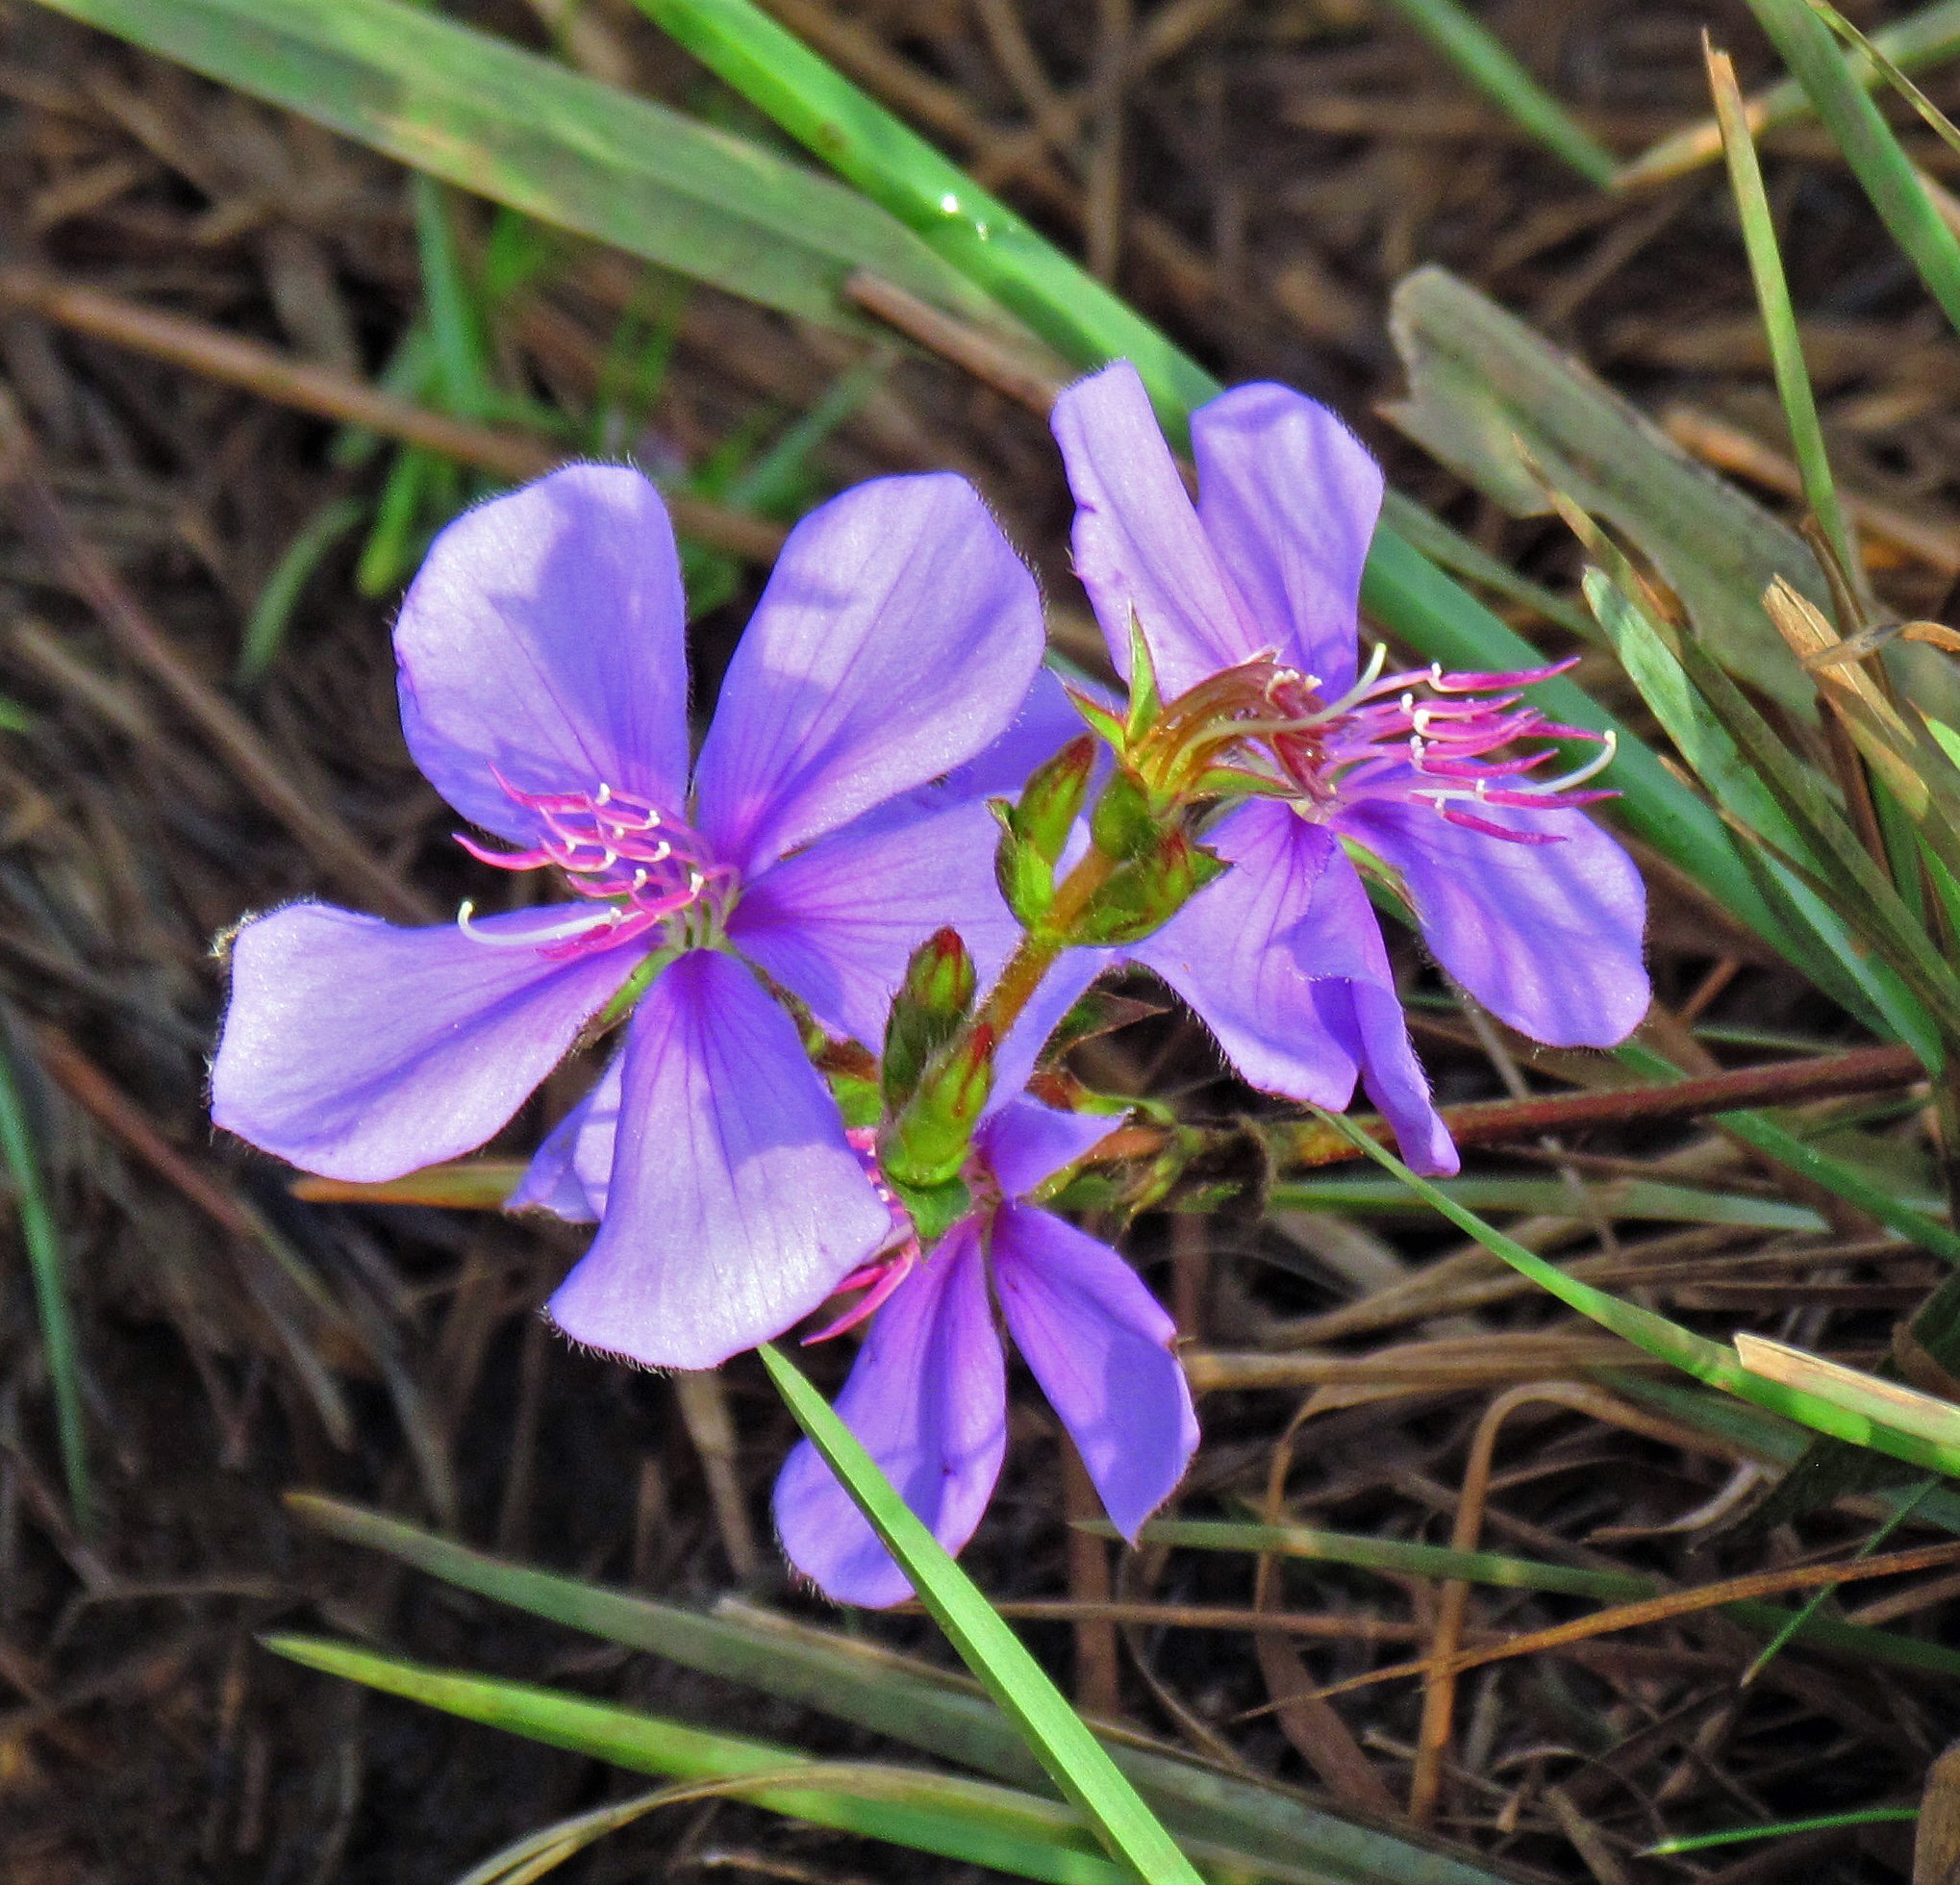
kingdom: Plantae
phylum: Tracheophyta
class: Magnoliopsida
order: Myrtales
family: Melastomataceae
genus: Chaetogastra
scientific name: Chaetogastra gracilis
